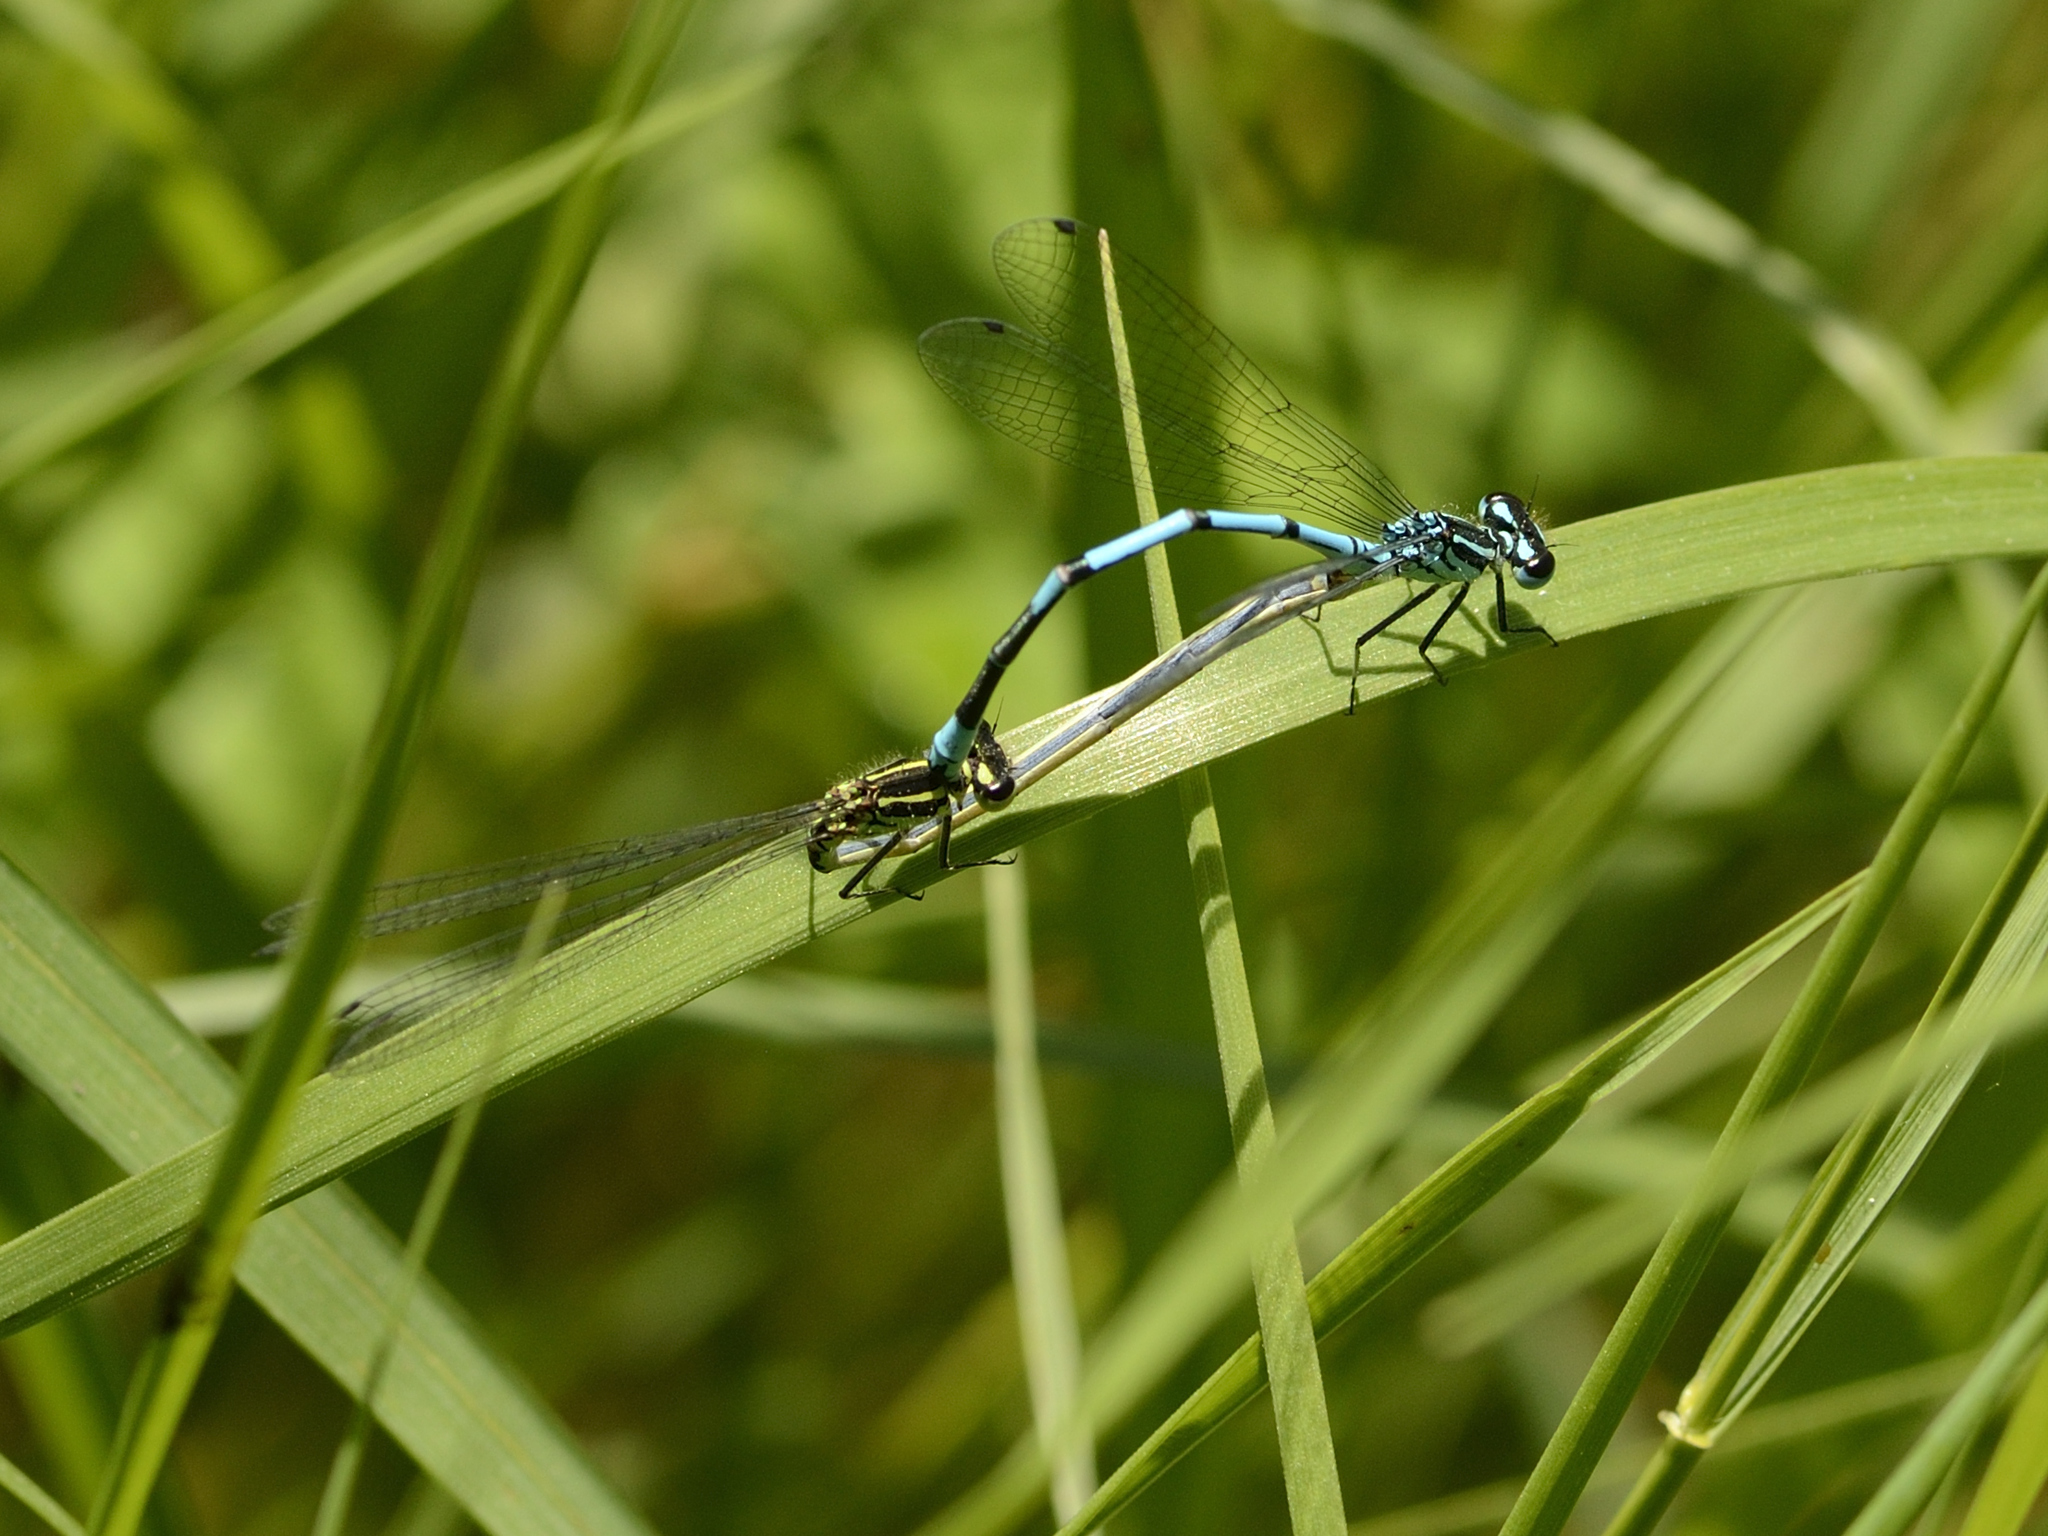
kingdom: Animalia
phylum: Arthropoda
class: Insecta
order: Odonata
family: Coenagrionidae
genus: Coenagrion
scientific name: Coenagrion puella
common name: Azure damselfly
